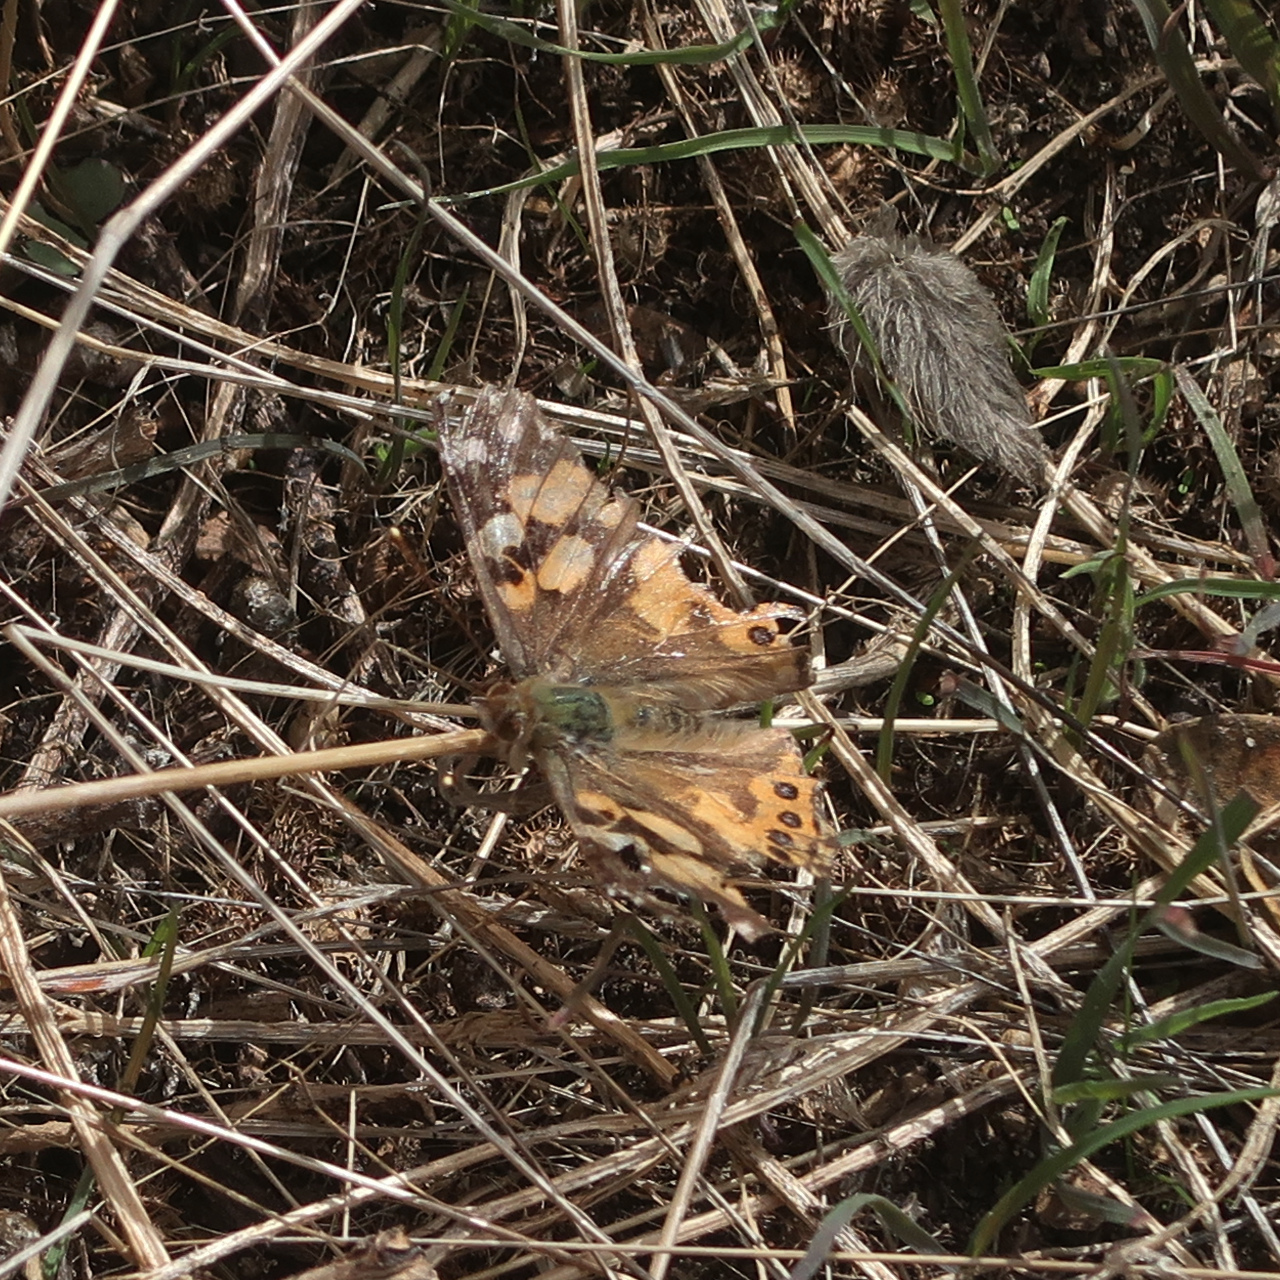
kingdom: Animalia
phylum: Arthropoda
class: Insecta
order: Lepidoptera
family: Nymphalidae
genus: Vanessa
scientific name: Vanessa kershawi
